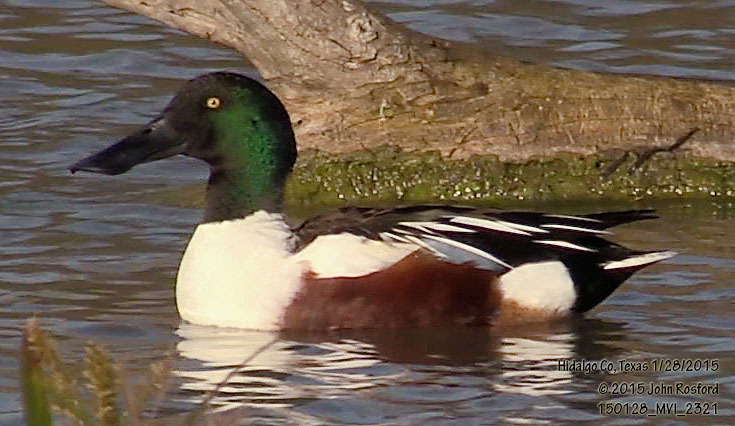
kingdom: Animalia
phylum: Chordata
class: Aves
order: Anseriformes
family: Anatidae
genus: Spatula
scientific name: Spatula clypeata
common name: Northern shoveler
